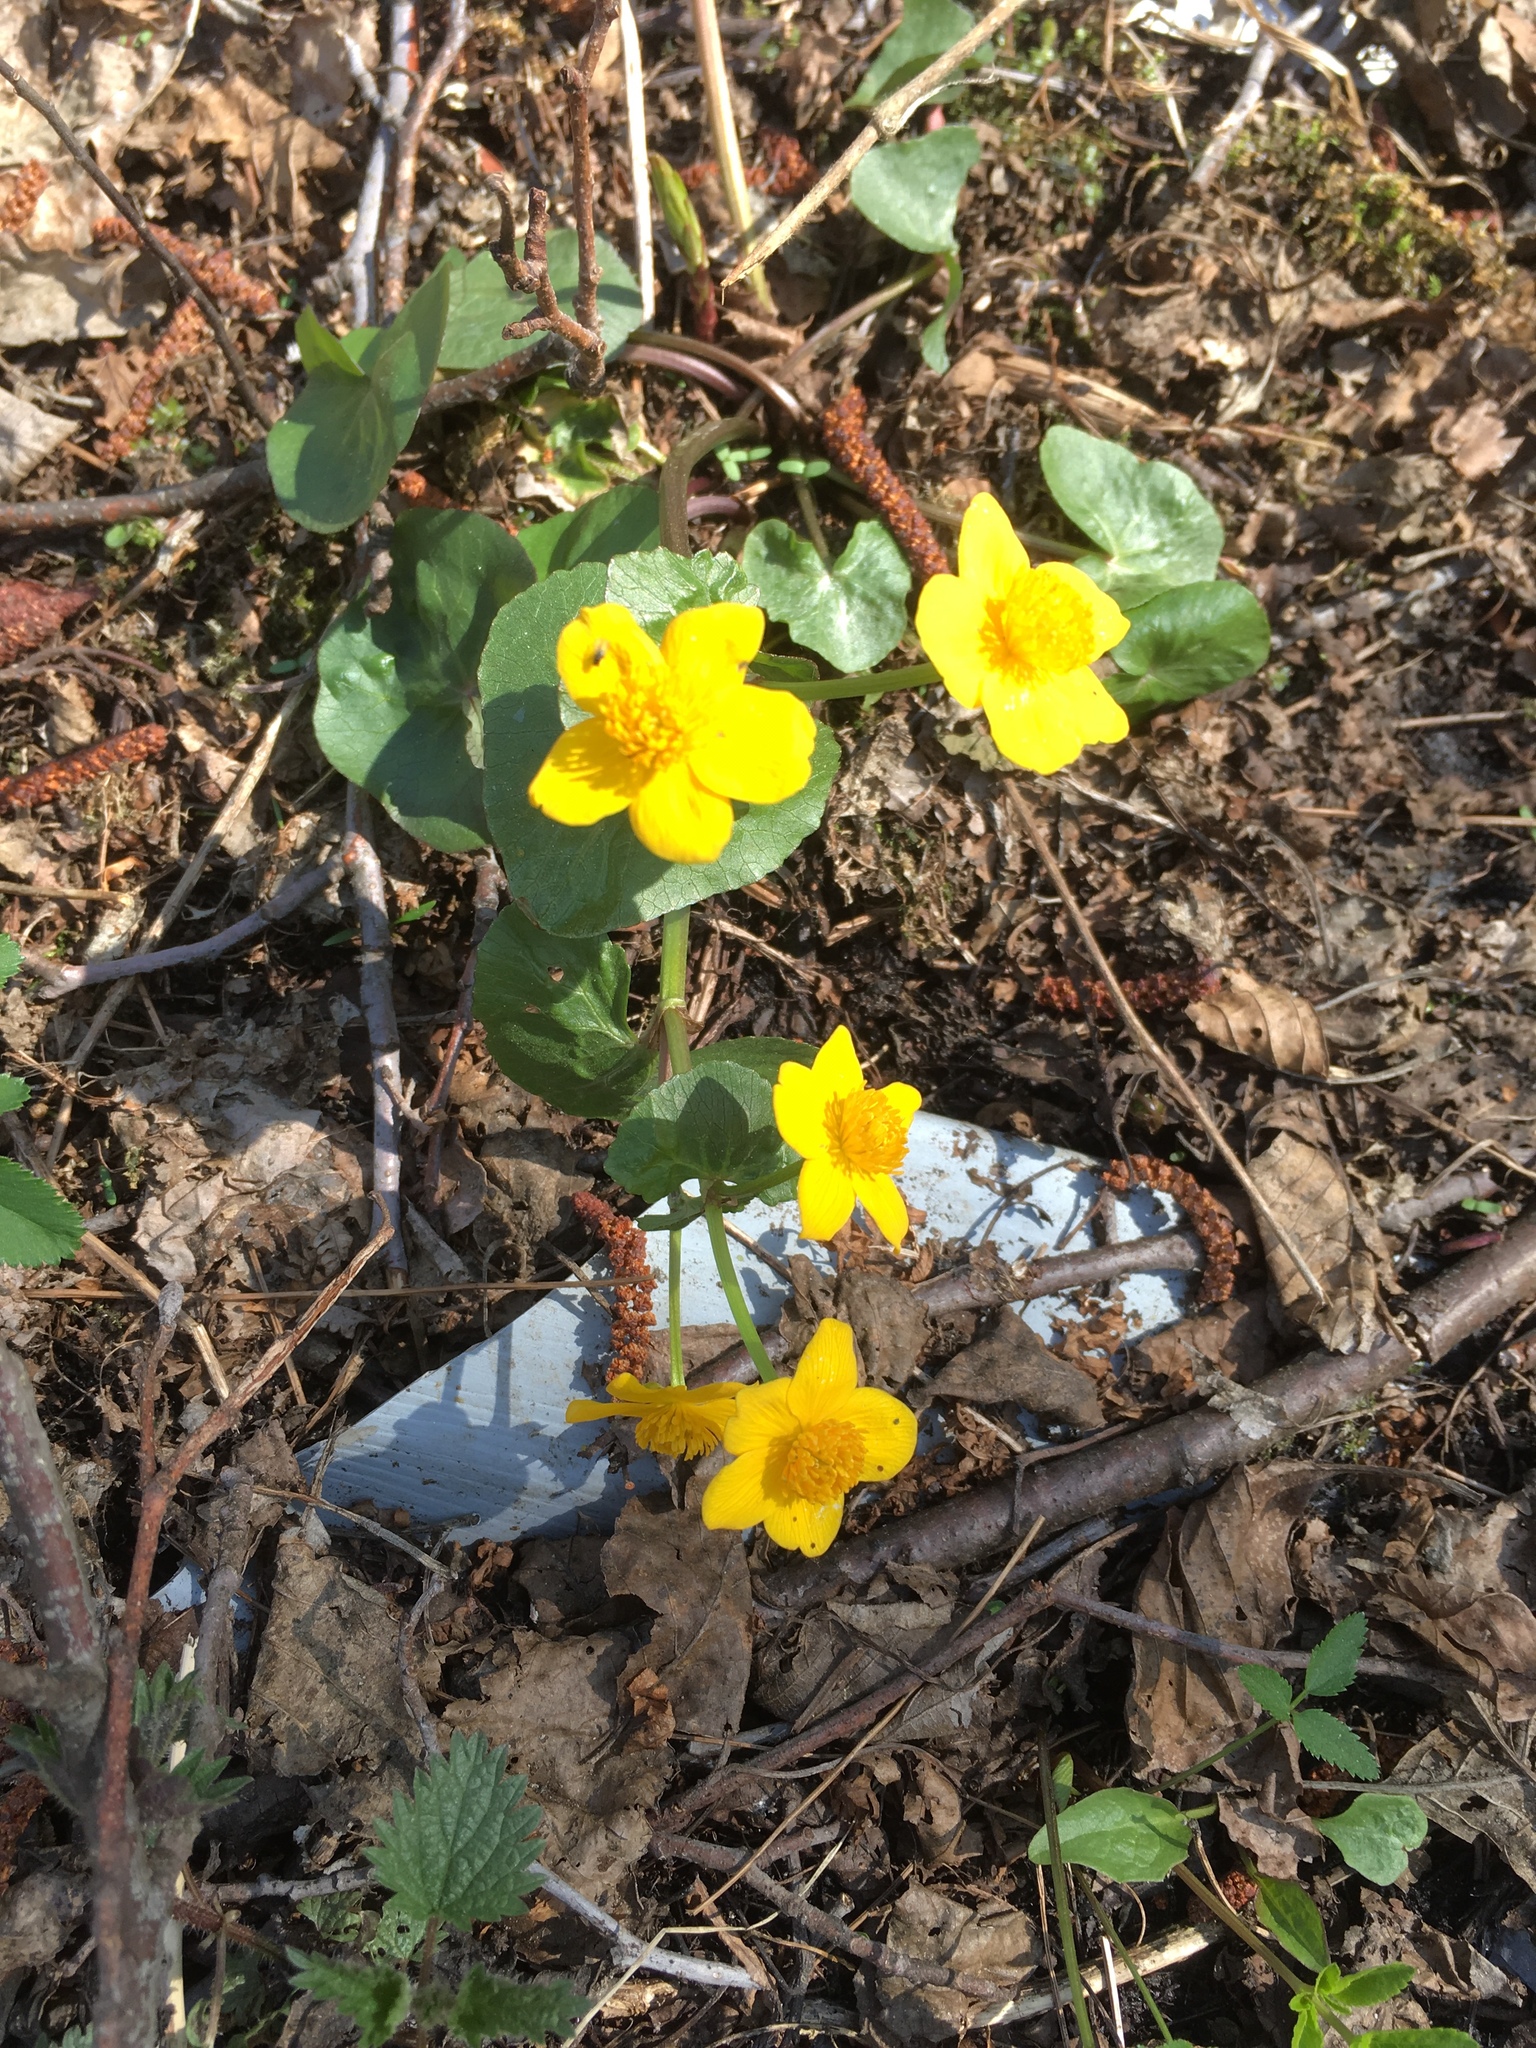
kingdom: Plantae
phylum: Tracheophyta
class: Magnoliopsida
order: Ranunculales
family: Ranunculaceae
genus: Caltha
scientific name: Caltha palustris
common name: Marsh marigold
